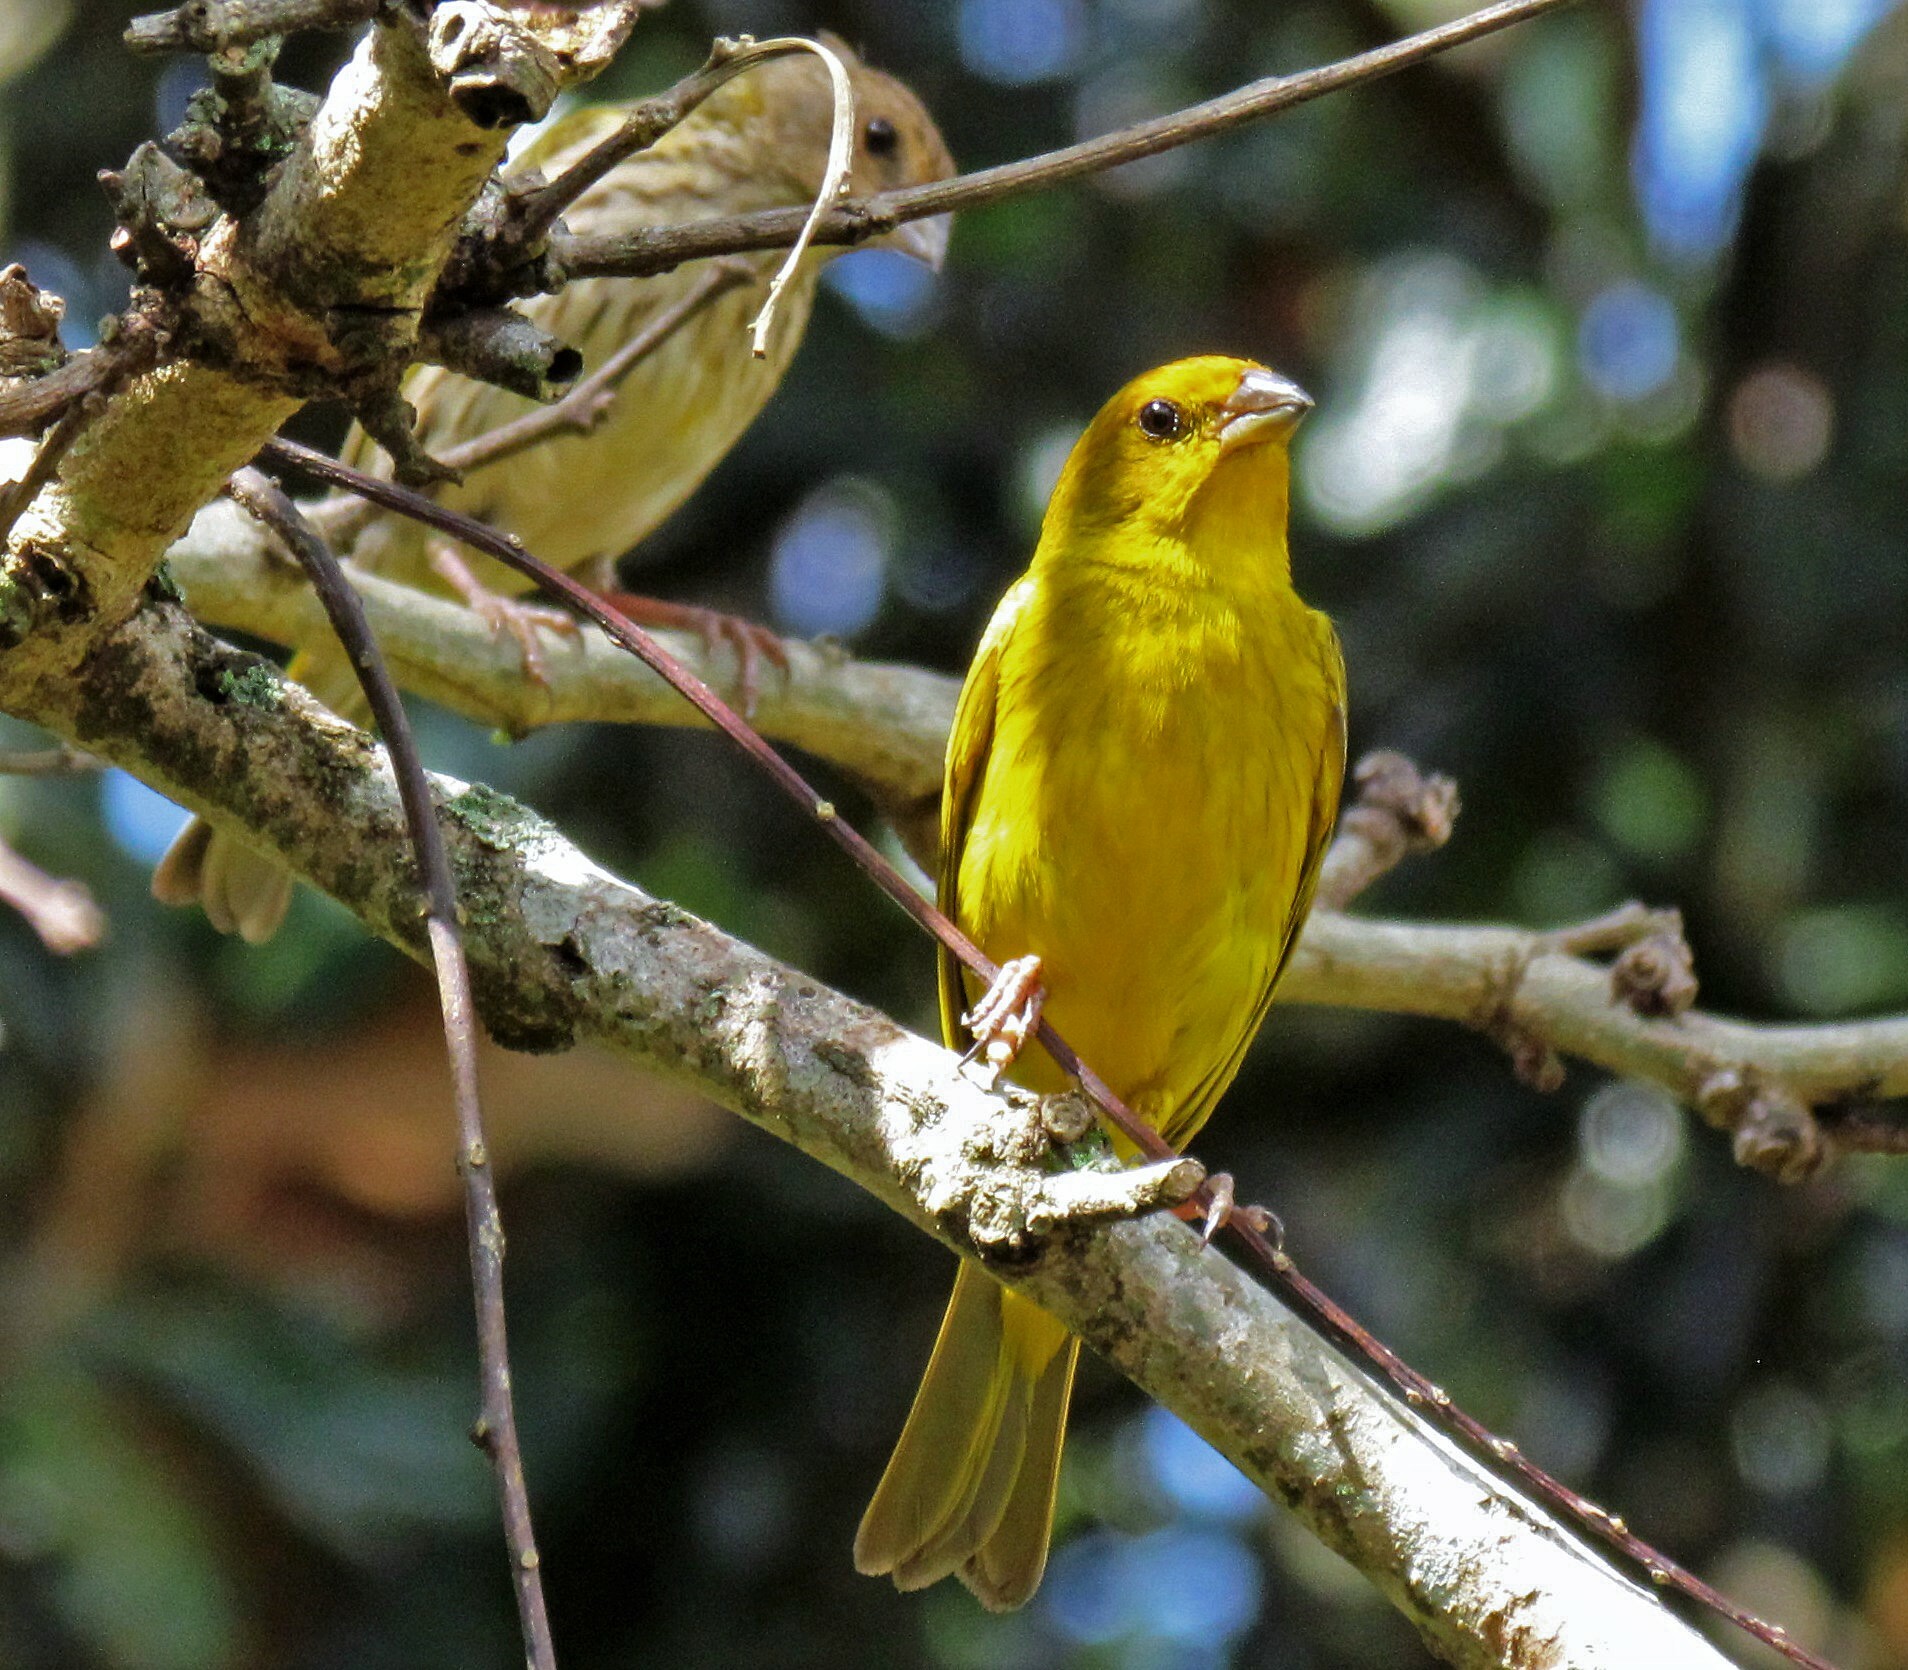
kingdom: Animalia
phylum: Chordata
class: Aves
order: Passeriformes
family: Thraupidae
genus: Sicalis
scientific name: Sicalis flaveola
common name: Saffron finch
